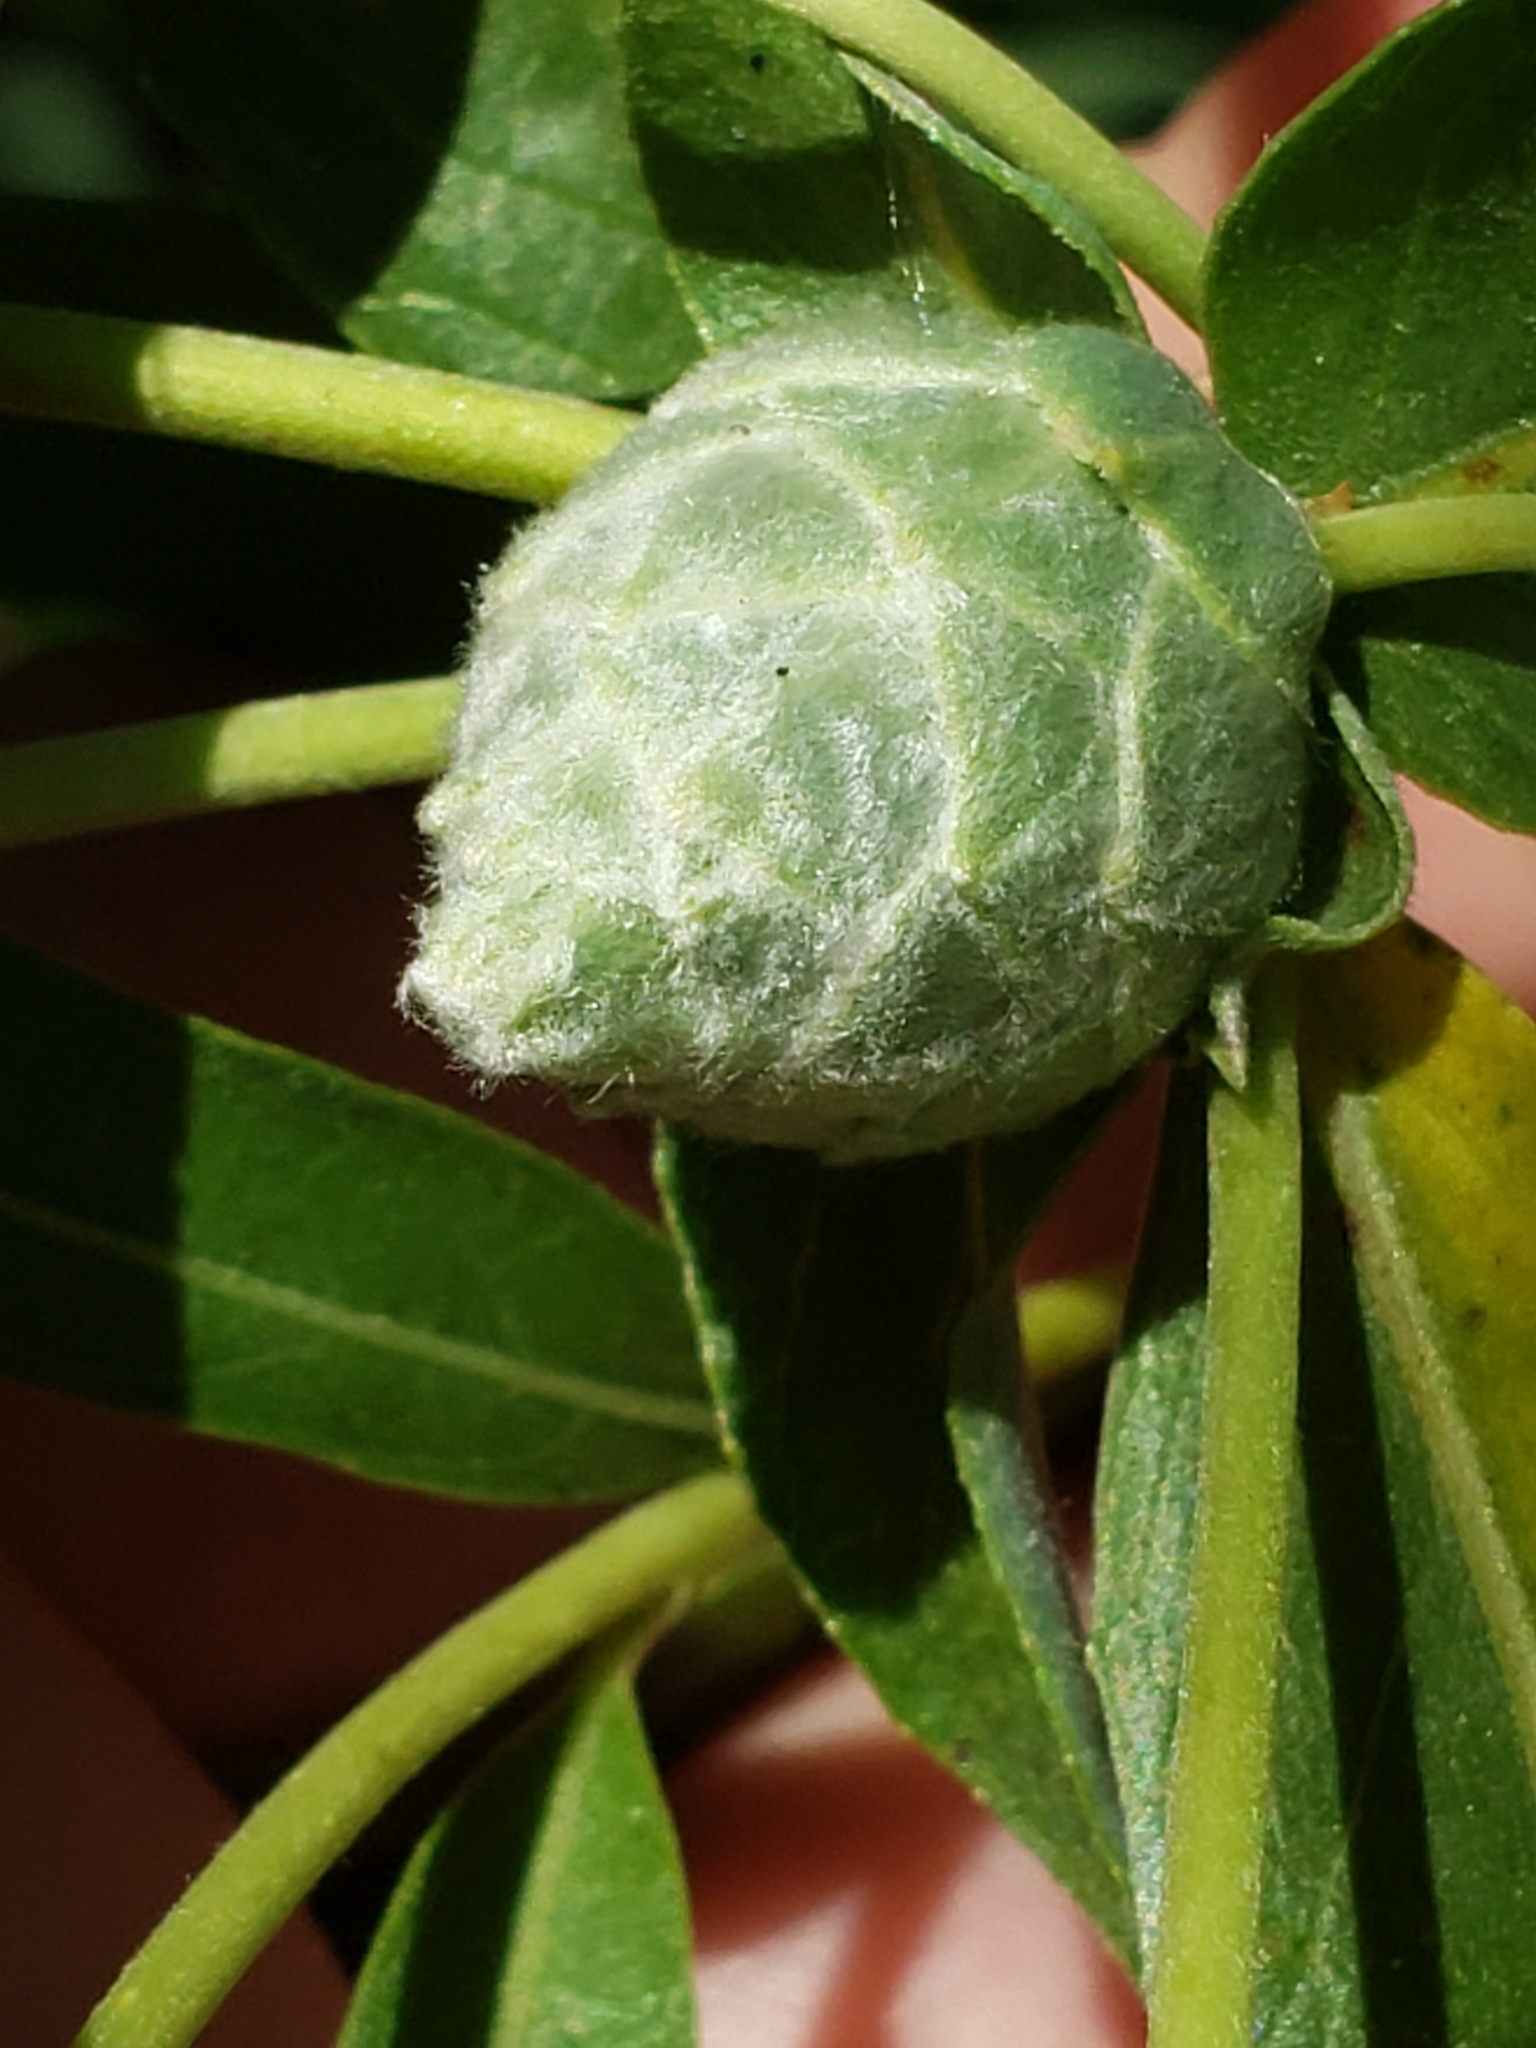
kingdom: Plantae
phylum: Tracheophyta
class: Magnoliopsida
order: Malpighiales
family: Salicaceae
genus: Salix
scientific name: Salix interior
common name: Sandbar willow
